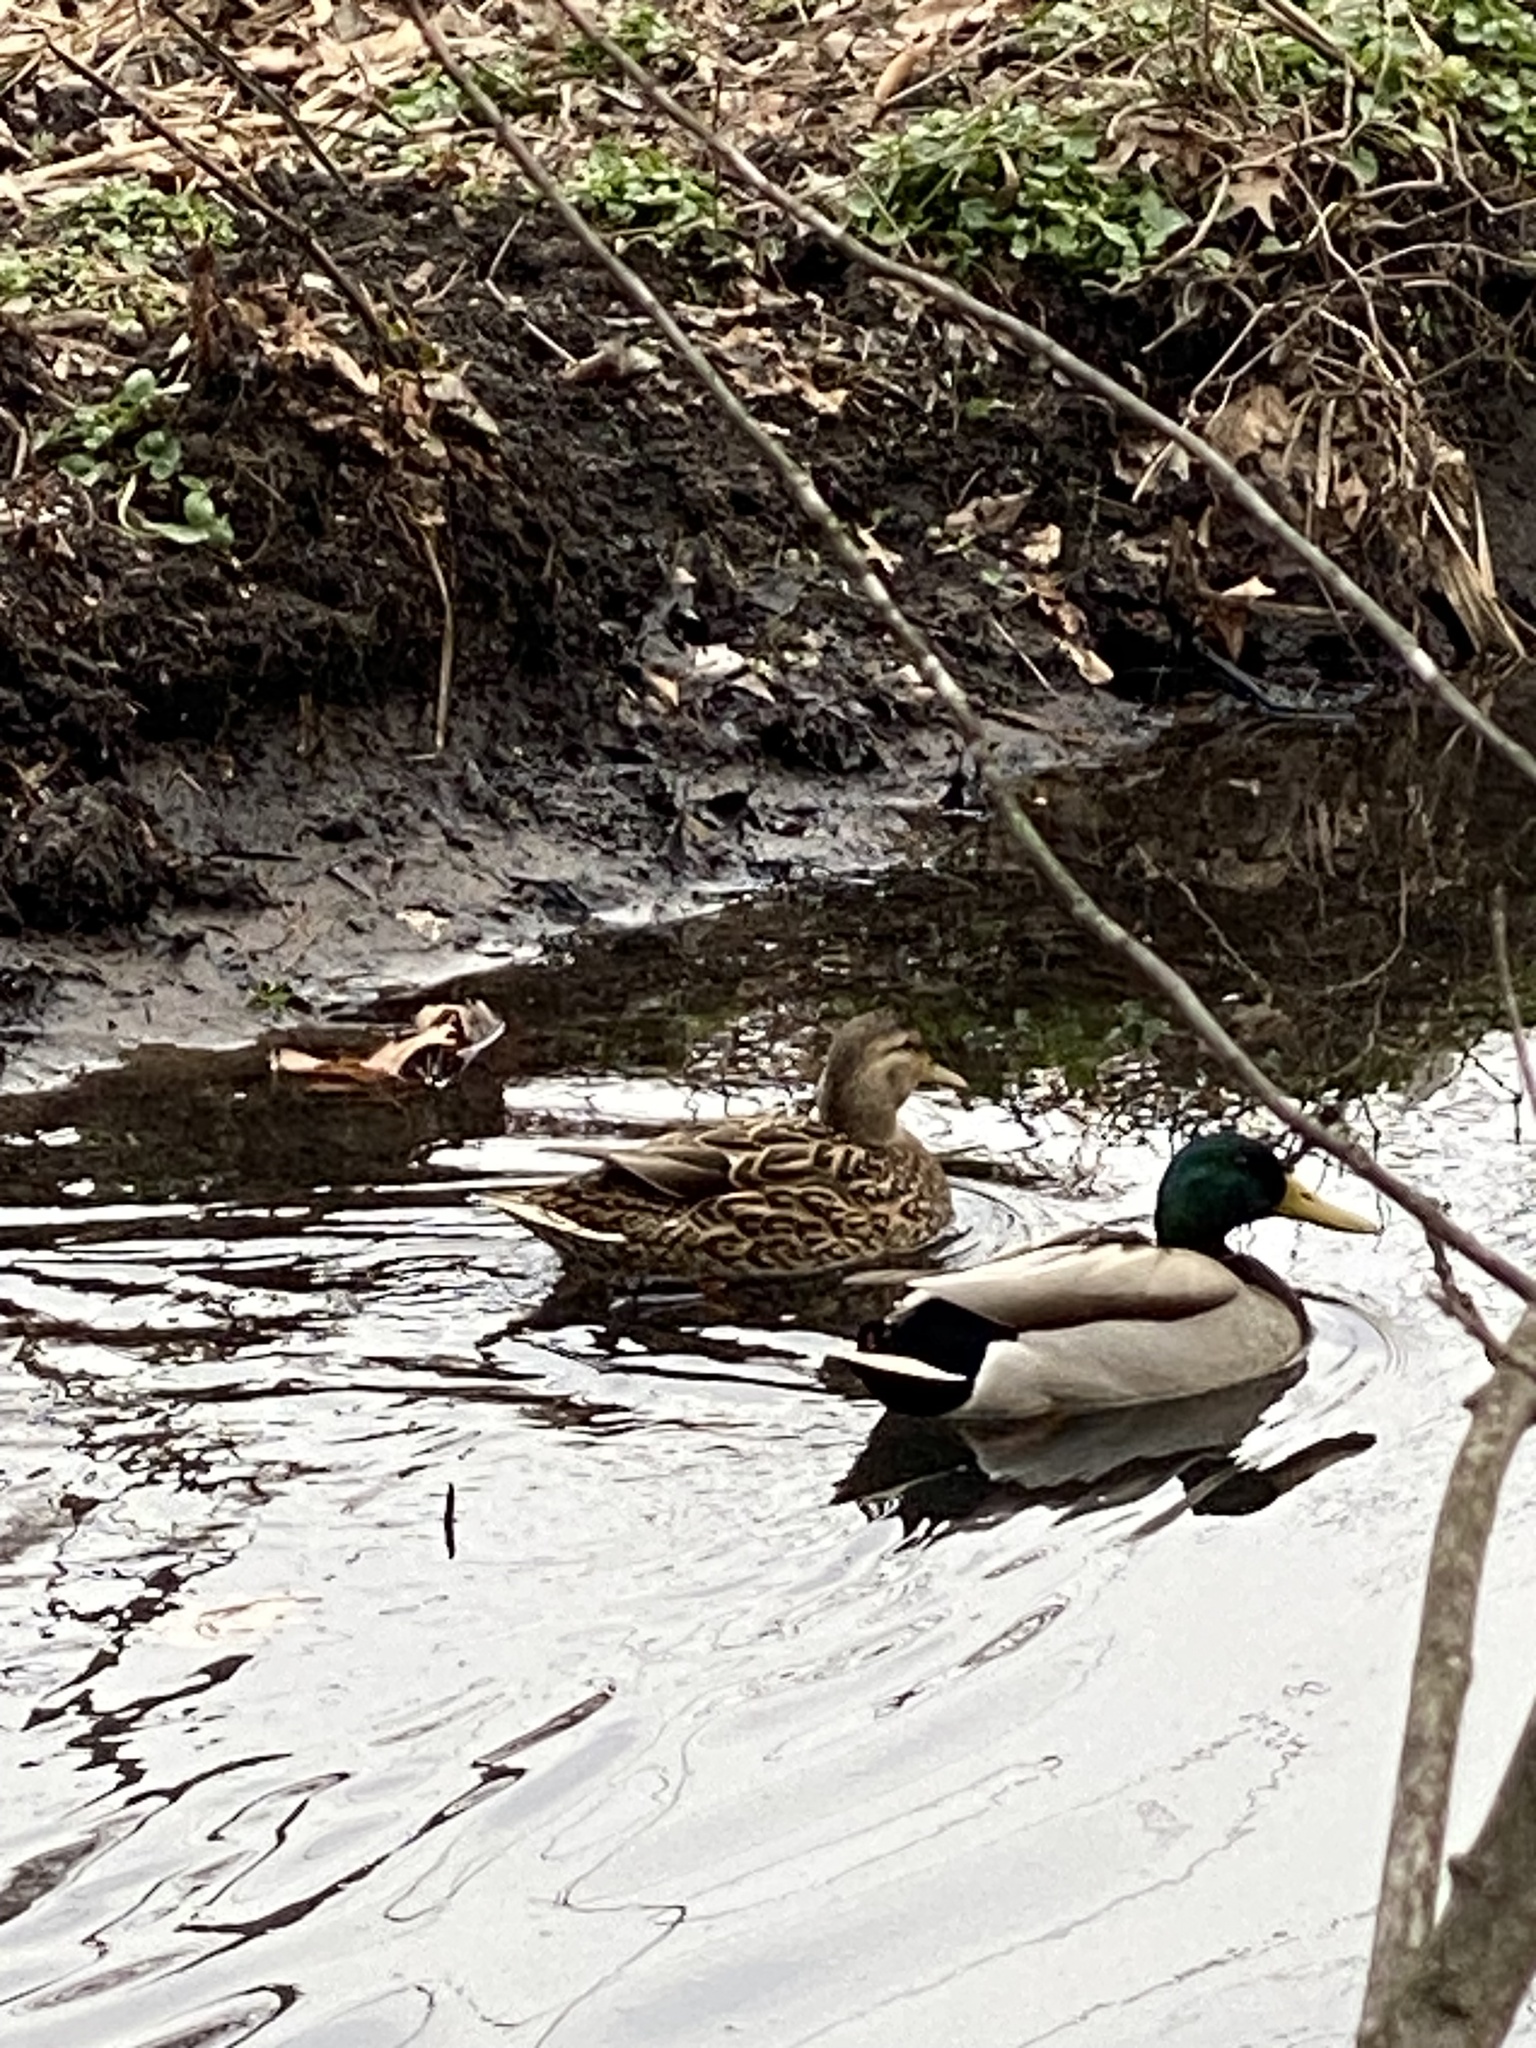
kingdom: Animalia
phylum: Chordata
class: Aves
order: Anseriformes
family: Anatidae
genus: Anas
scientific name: Anas platyrhynchos
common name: Mallard
